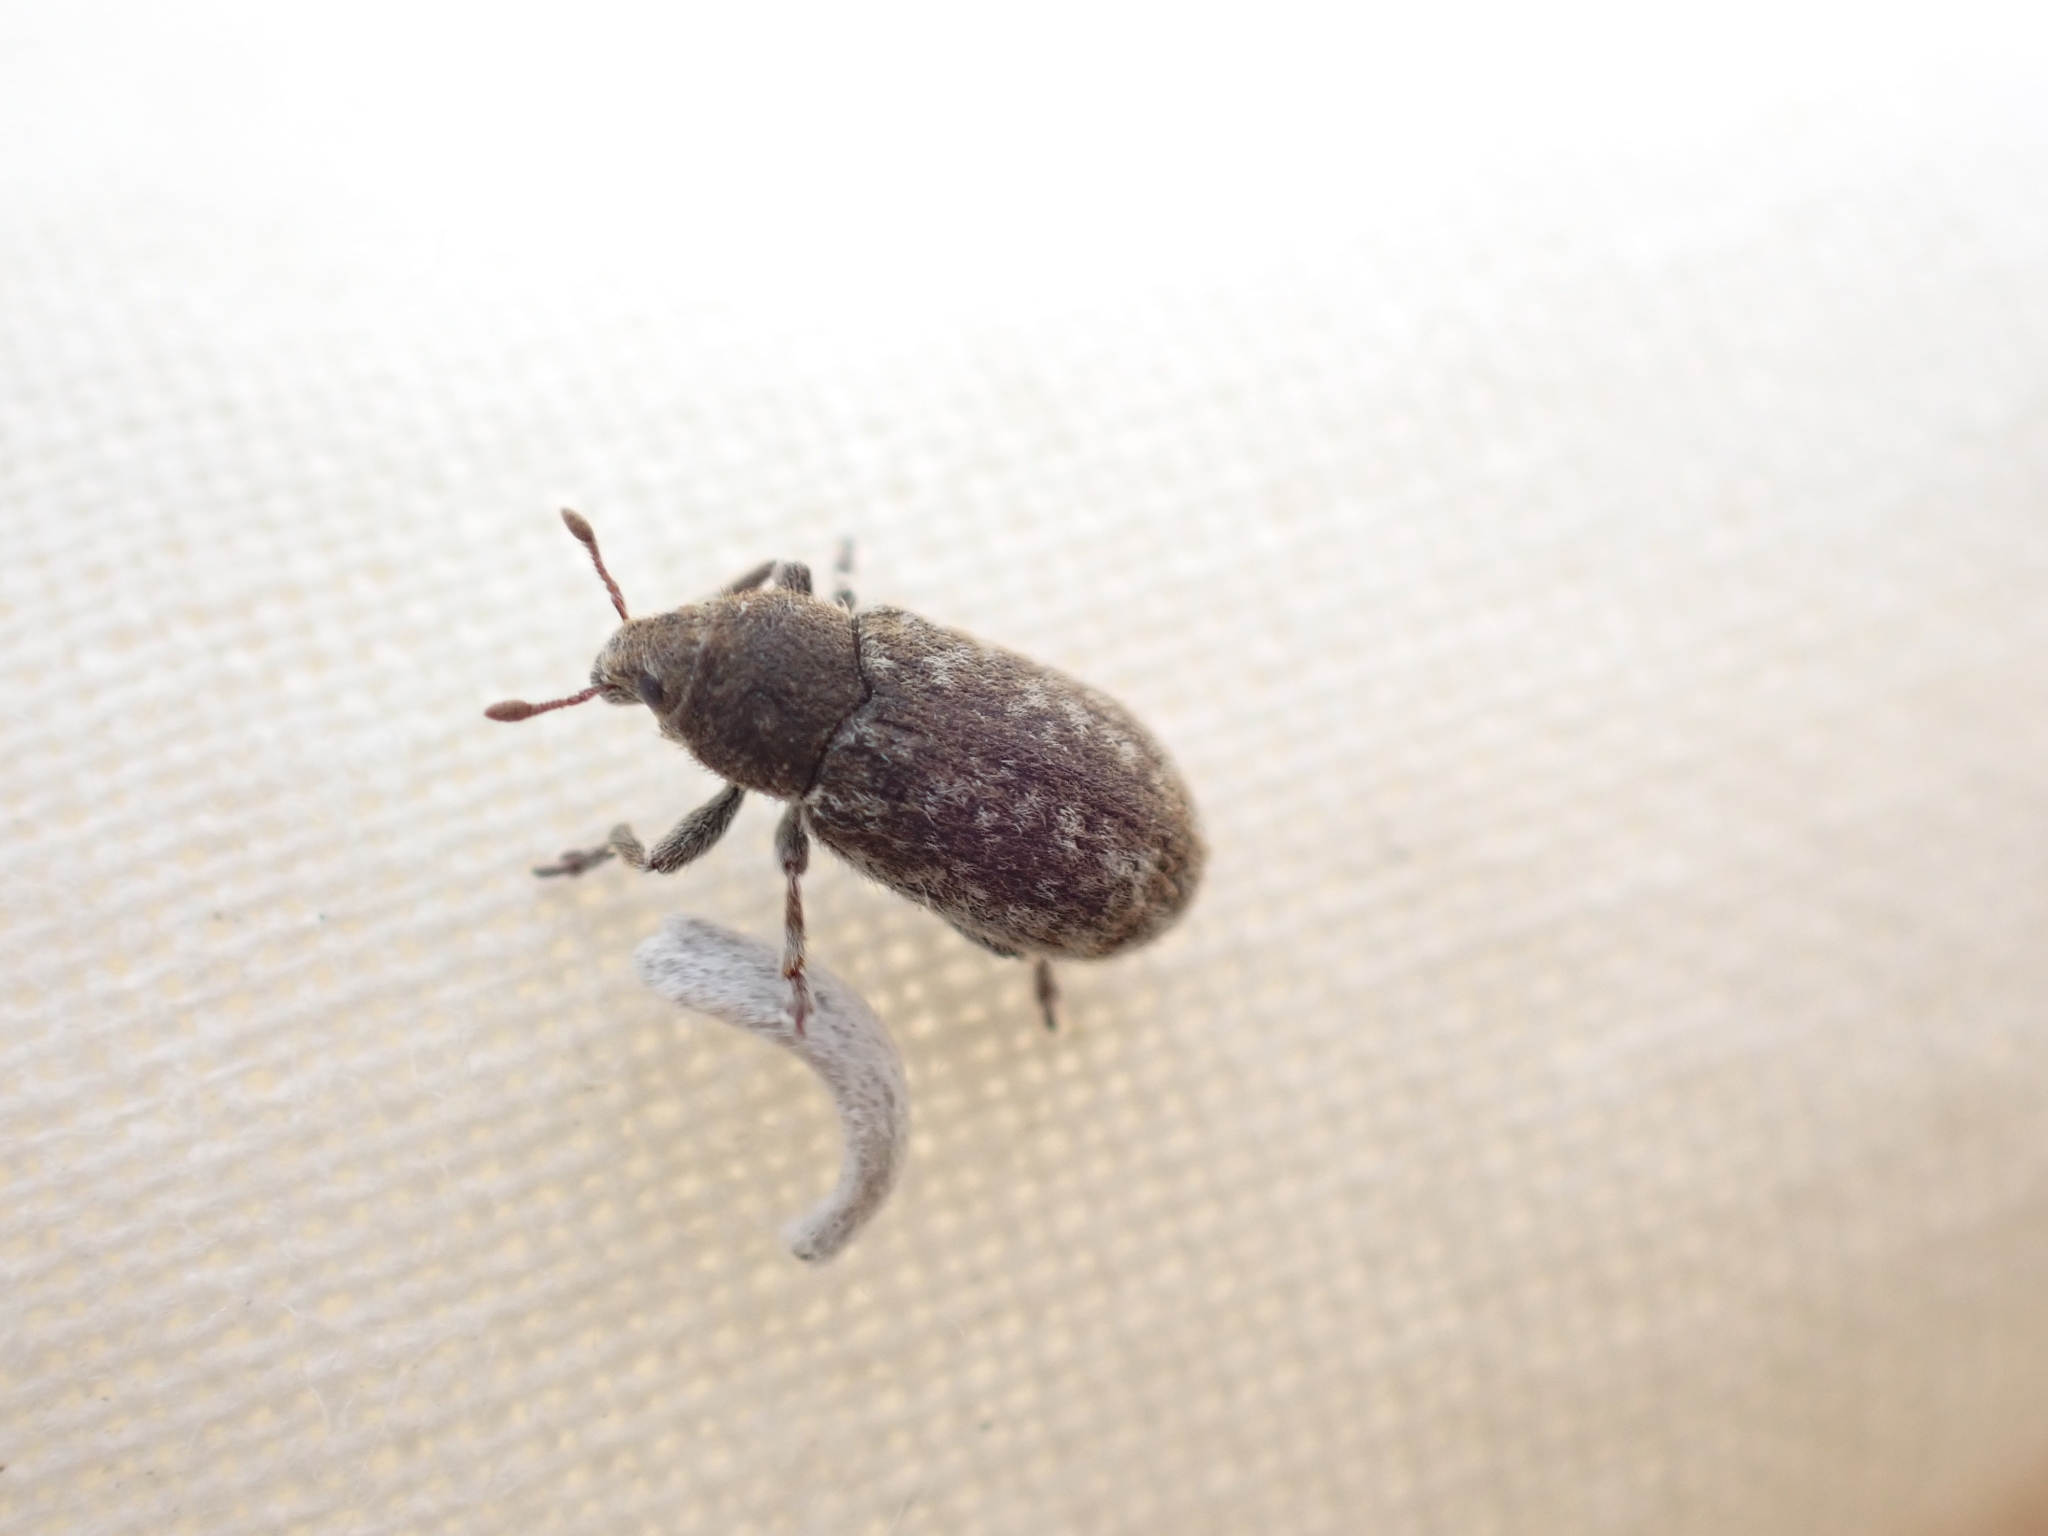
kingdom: Animalia
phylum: Arthropoda
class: Insecta
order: Coleoptera
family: Curculionidae
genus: Bangasternus
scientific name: Bangasternus fausti
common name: Broad-nosed knapweed seedhead weevil
